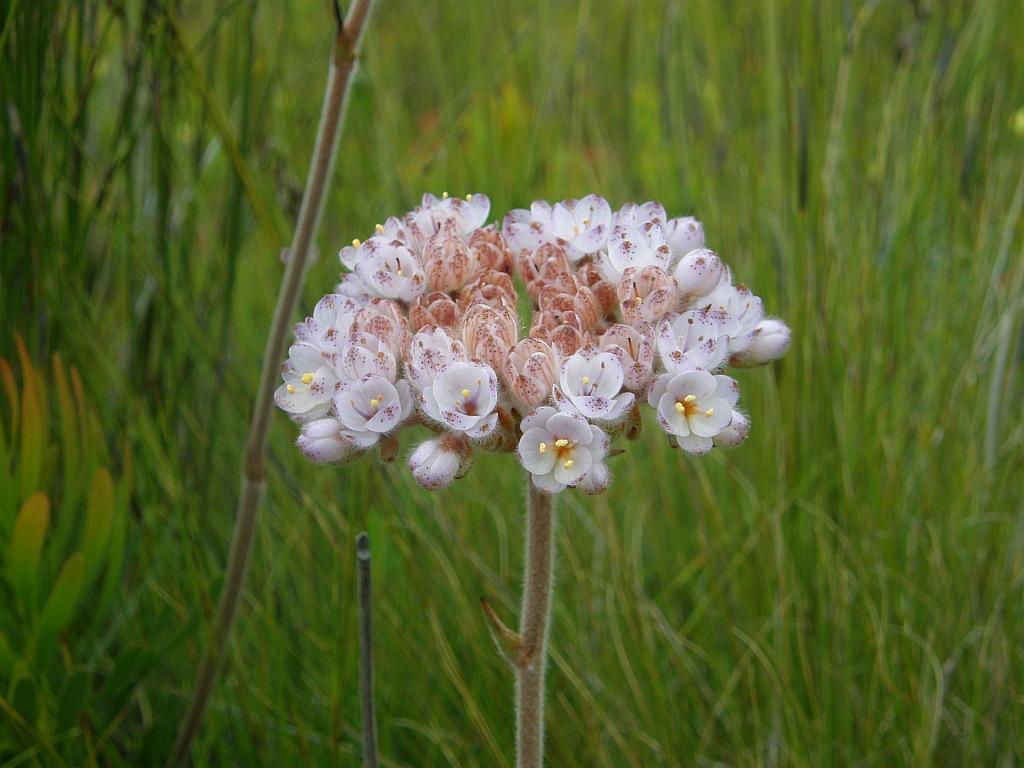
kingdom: Plantae
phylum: Tracheophyta
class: Liliopsida
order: Commelinales
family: Haemodoraceae
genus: Dilatris
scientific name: Dilatris pillansii
